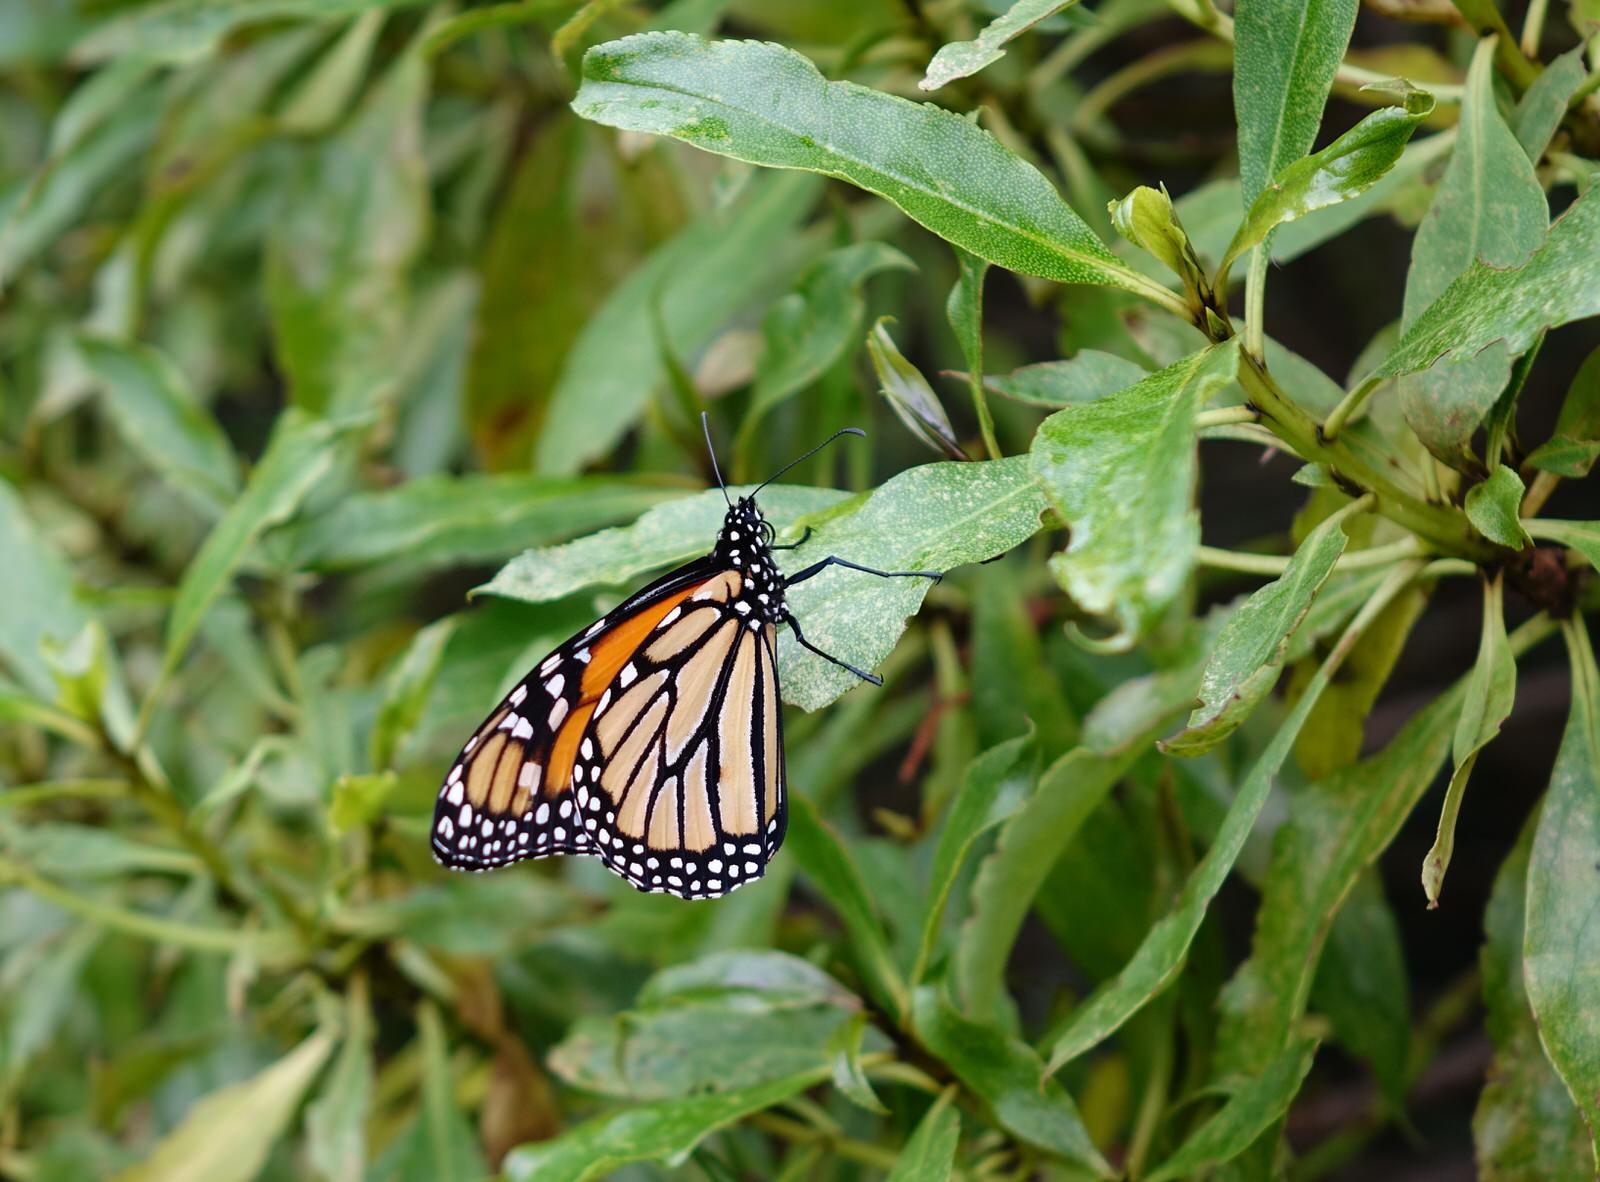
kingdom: Animalia
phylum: Arthropoda
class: Insecta
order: Lepidoptera
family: Nymphalidae
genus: Danaus
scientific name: Danaus plexippus
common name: Monarch
